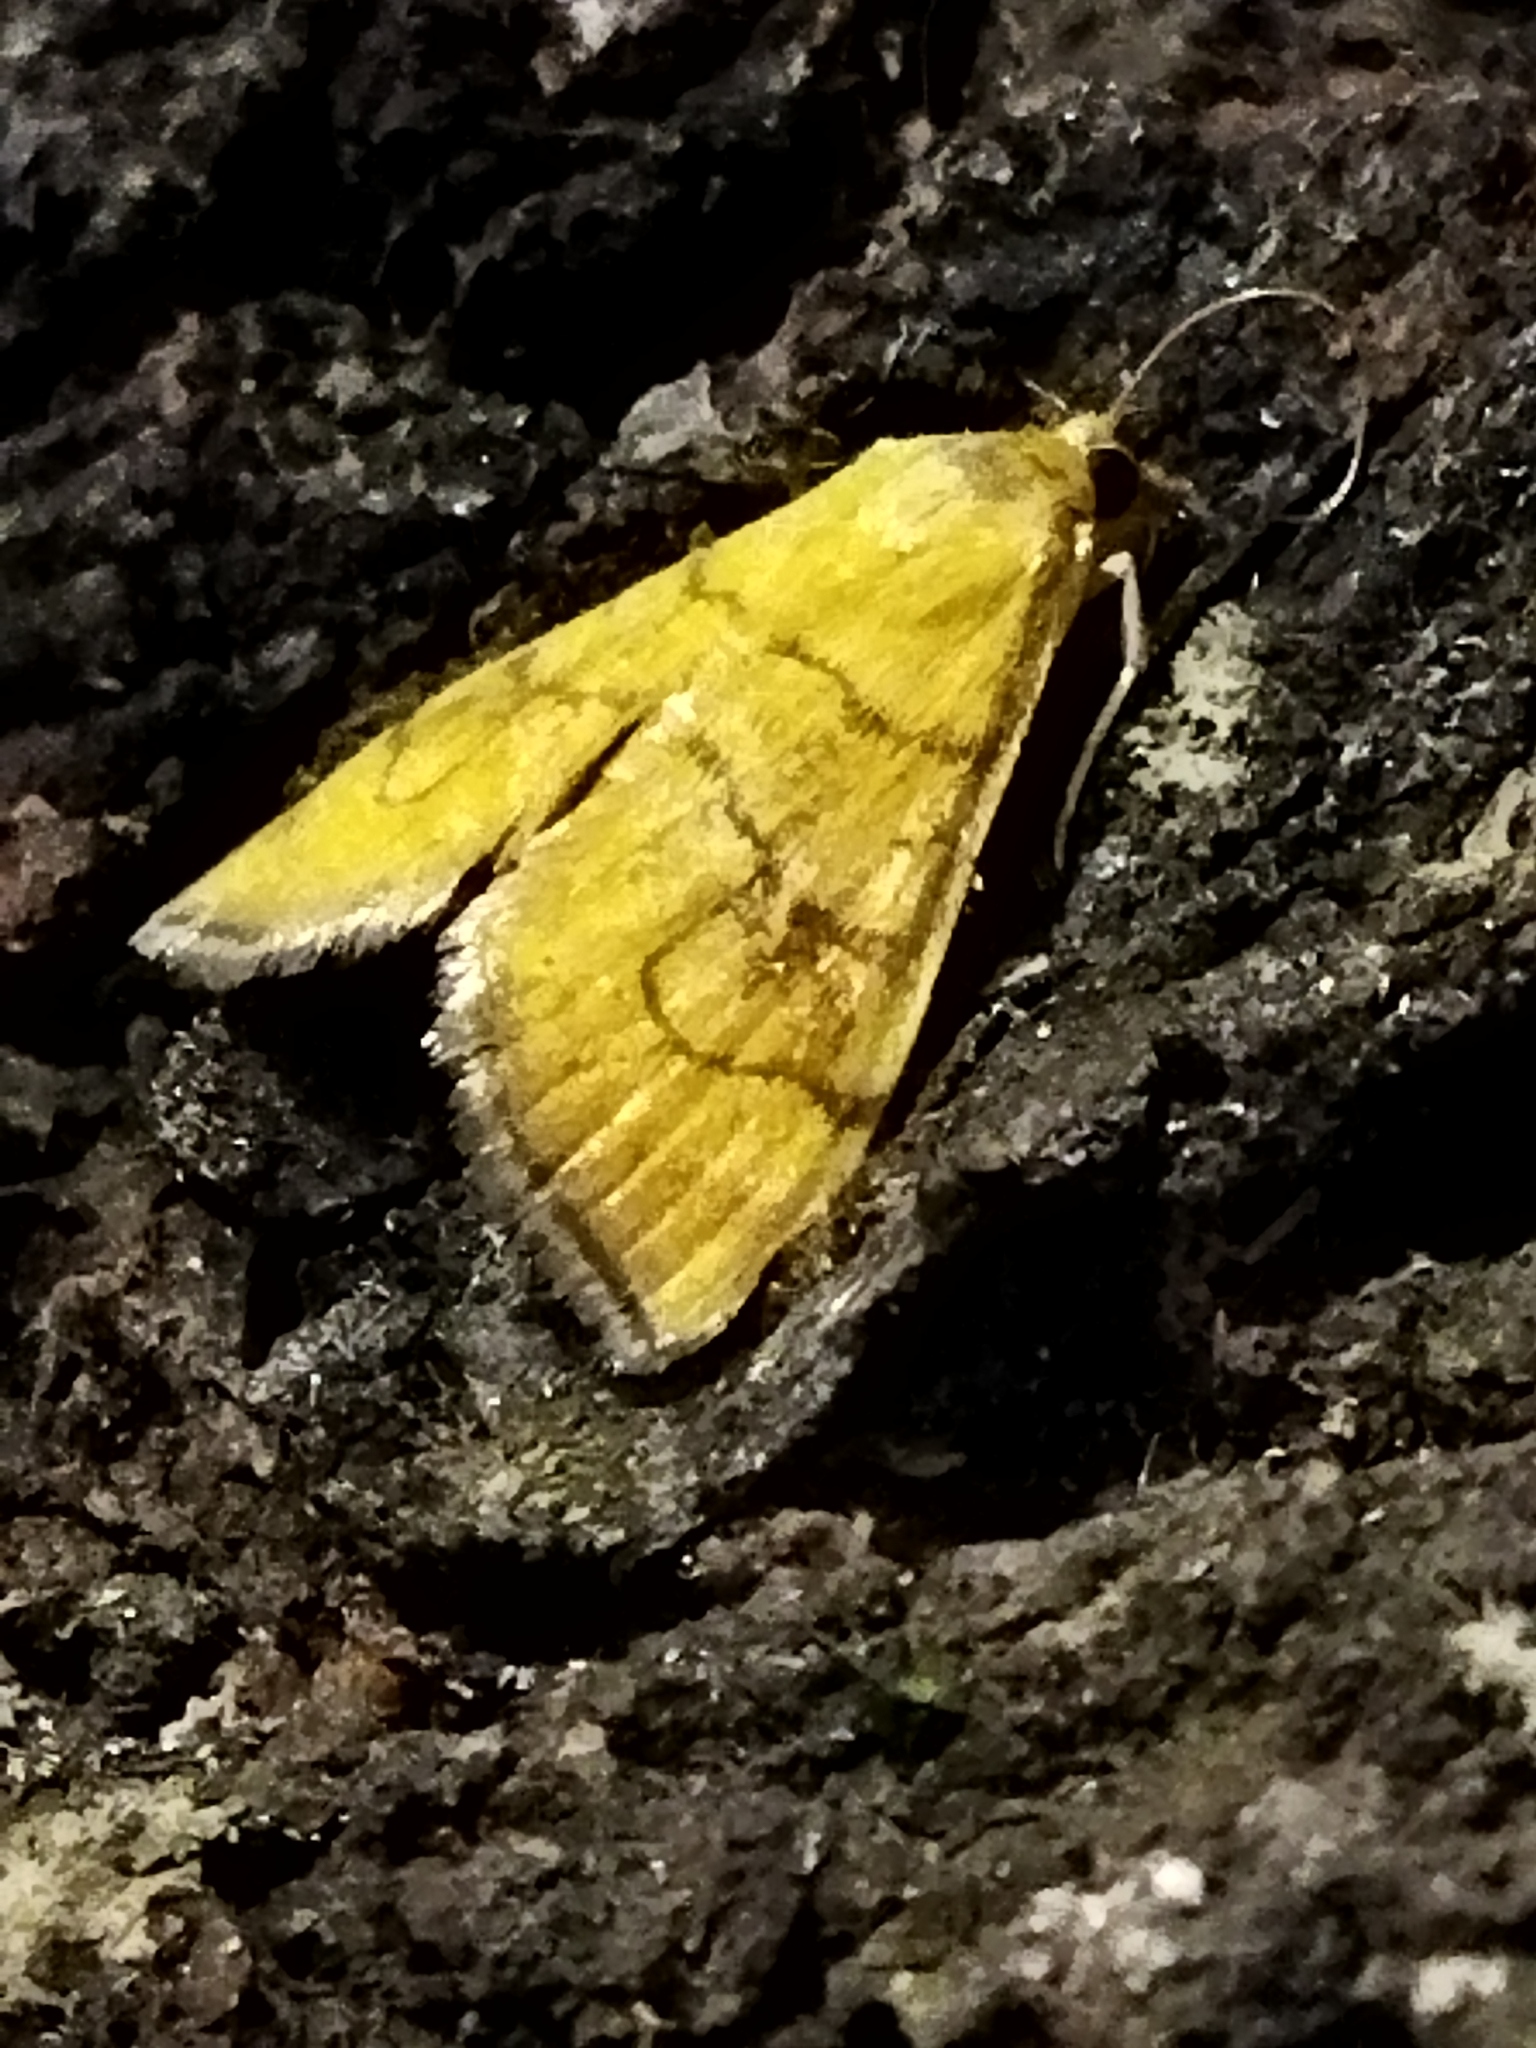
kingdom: Animalia
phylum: Arthropoda
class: Insecta
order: Lepidoptera
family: Crambidae
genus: Anania
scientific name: Anania verbascalis
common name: Golden pearl
